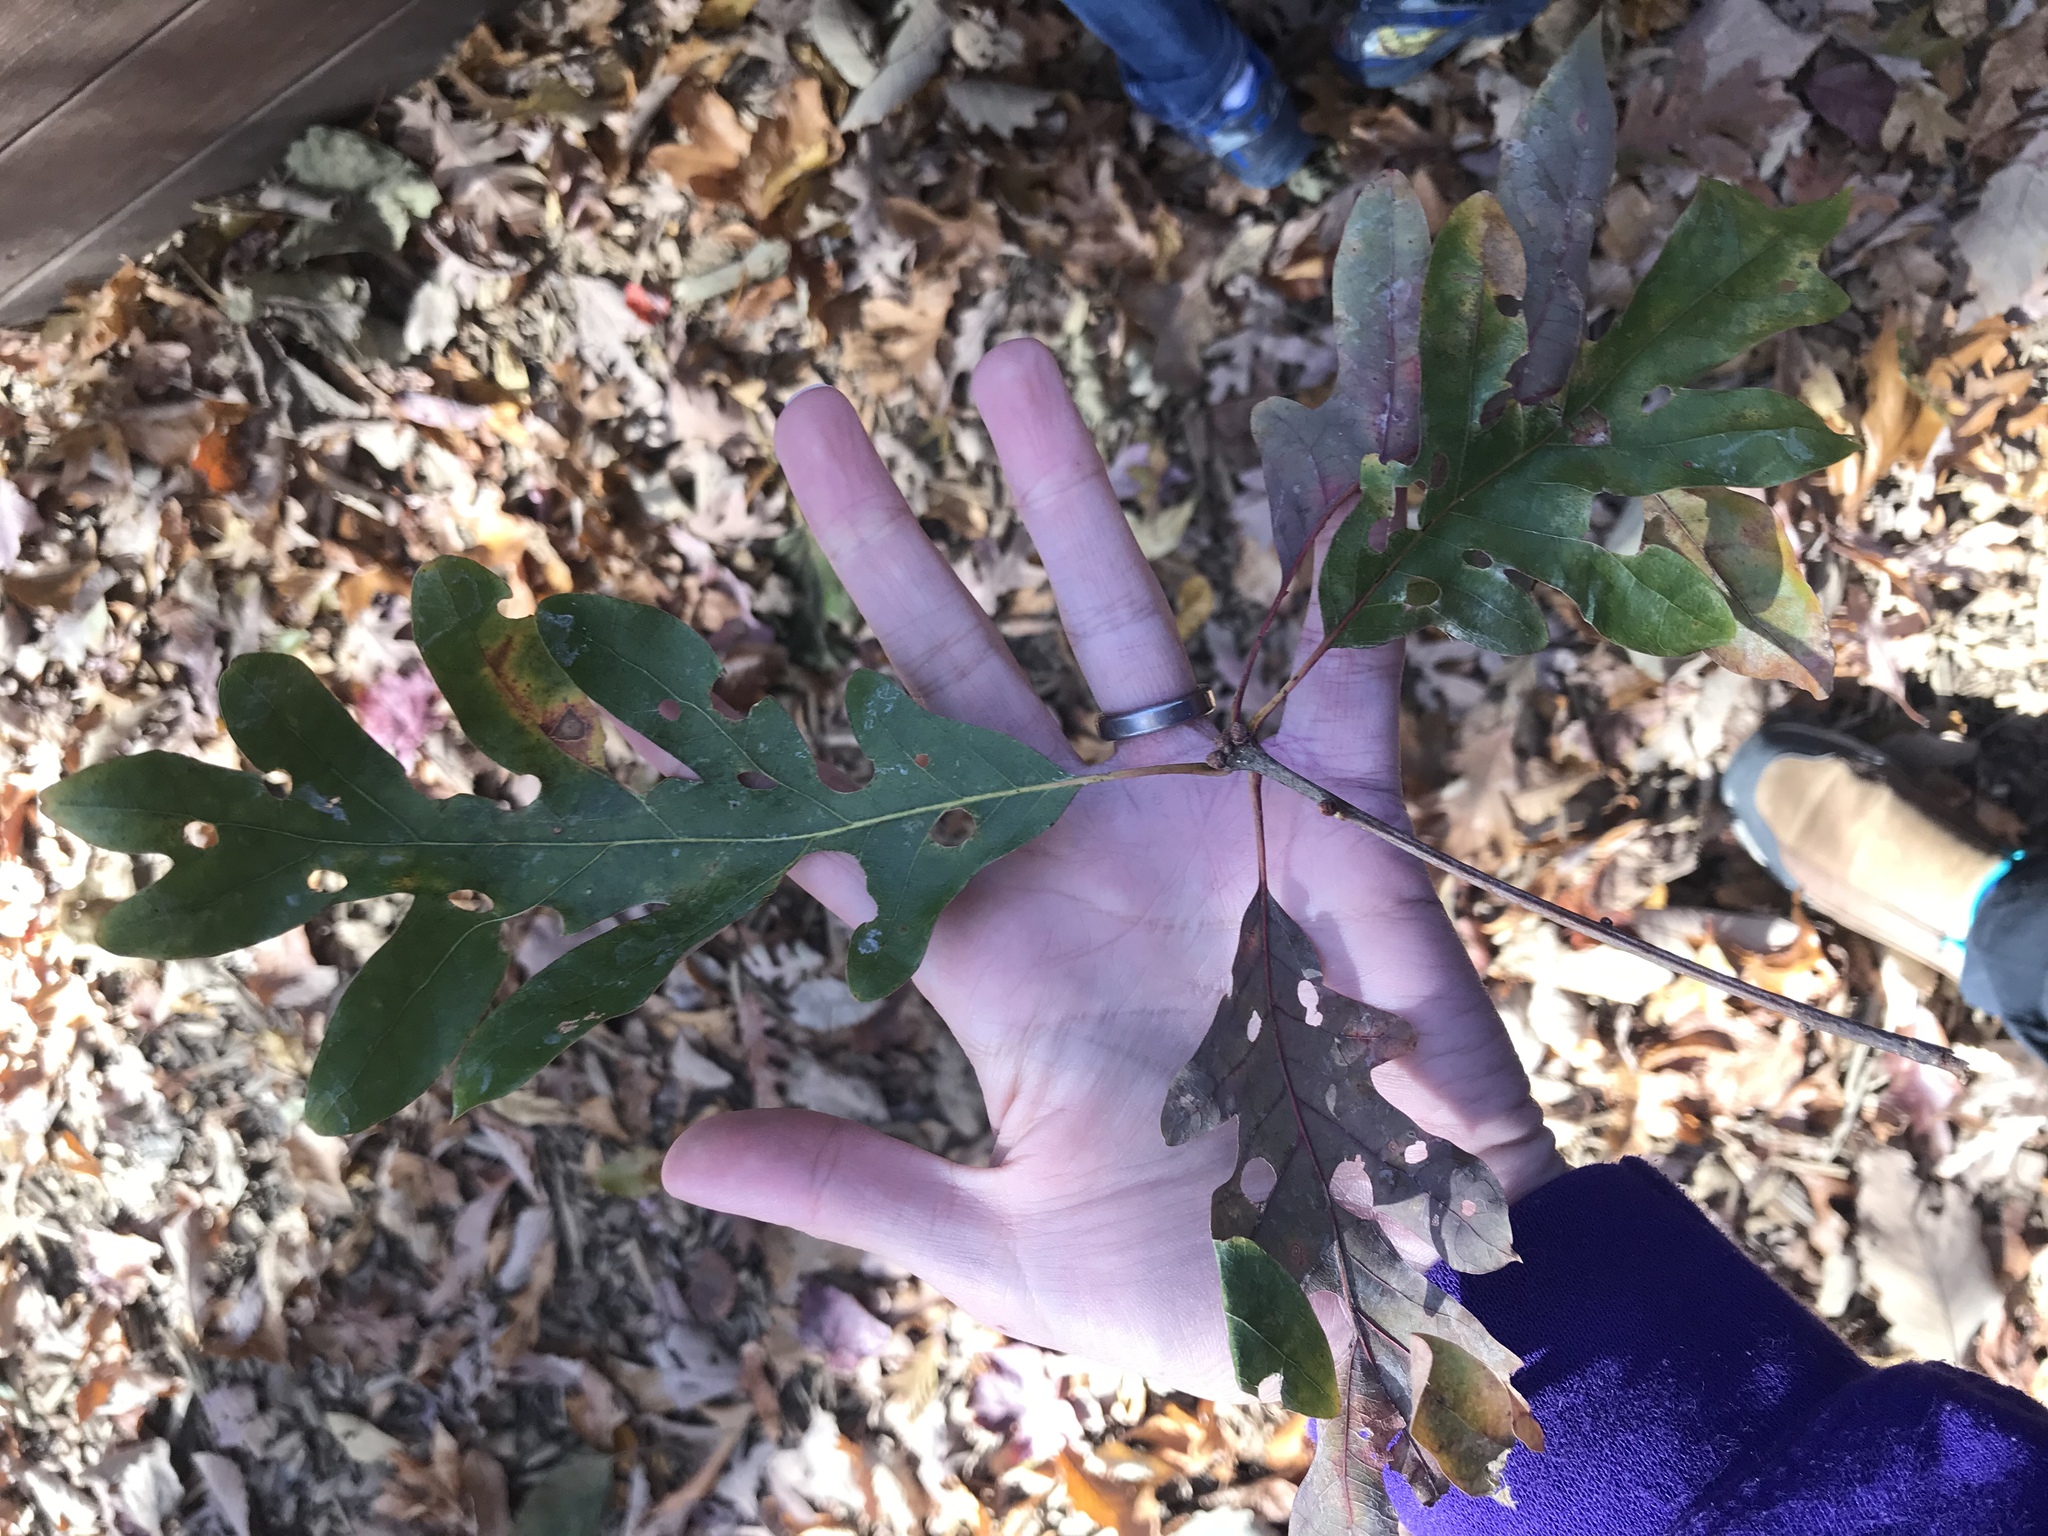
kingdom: Plantae
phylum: Tracheophyta
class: Magnoliopsida
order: Fagales
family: Fagaceae
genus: Quercus
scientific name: Quercus alba
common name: White oak
